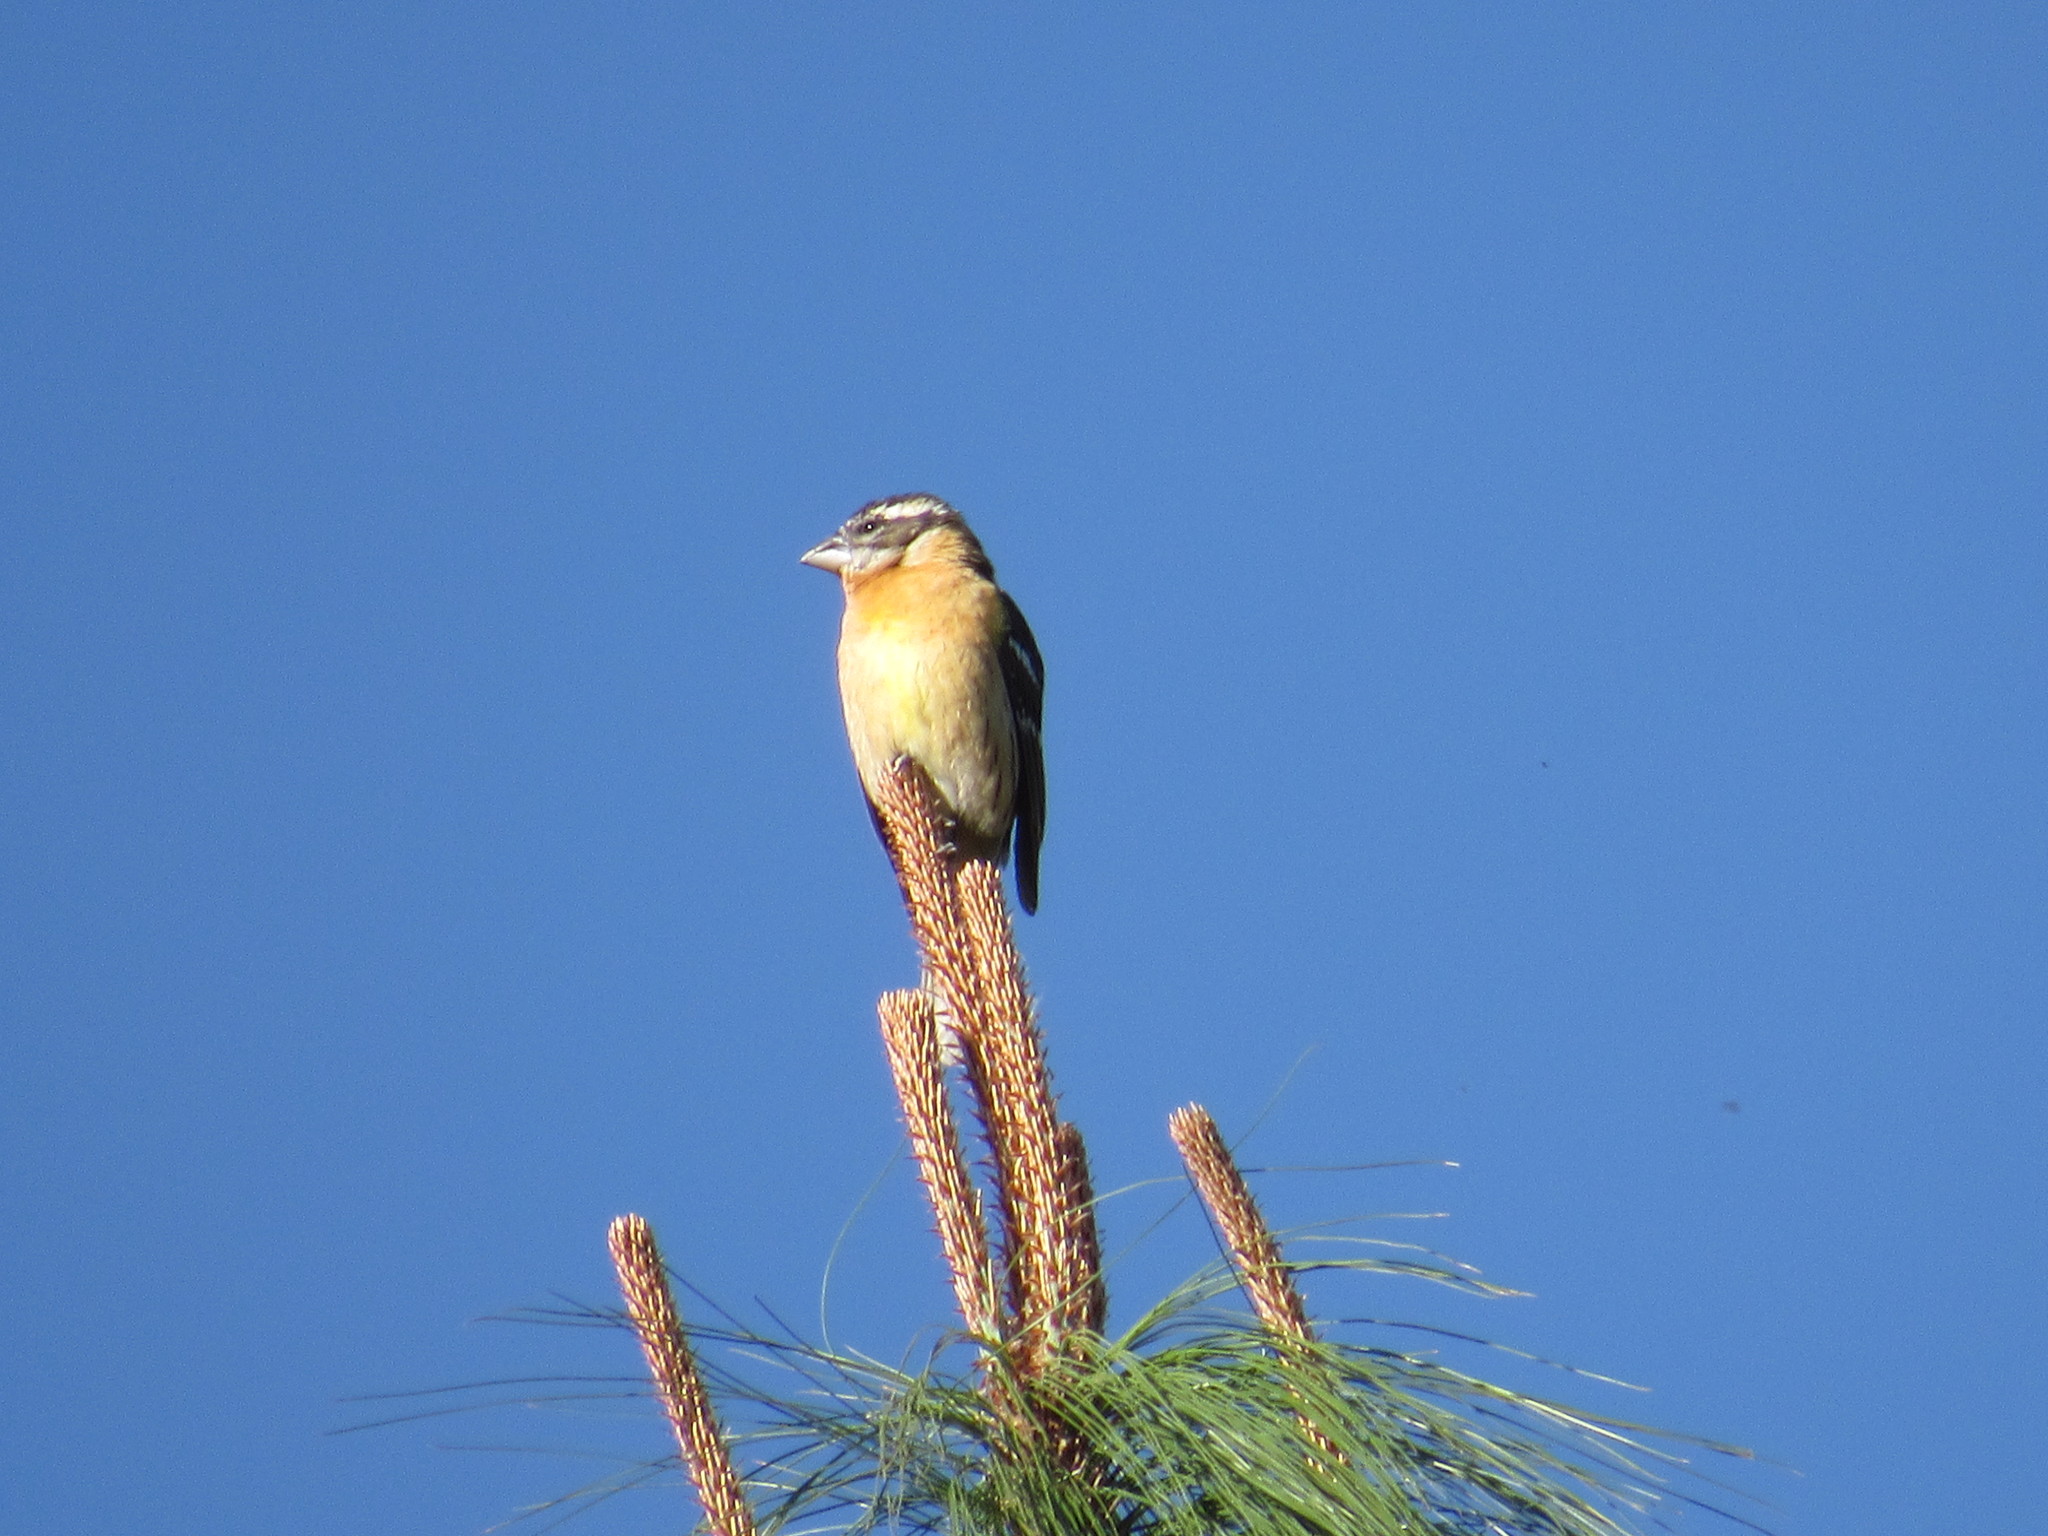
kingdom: Animalia
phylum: Chordata
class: Aves
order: Passeriformes
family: Cardinalidae
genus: Pheucticus
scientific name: Pheucticus melanocephalus
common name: Black-headed grosbeak
